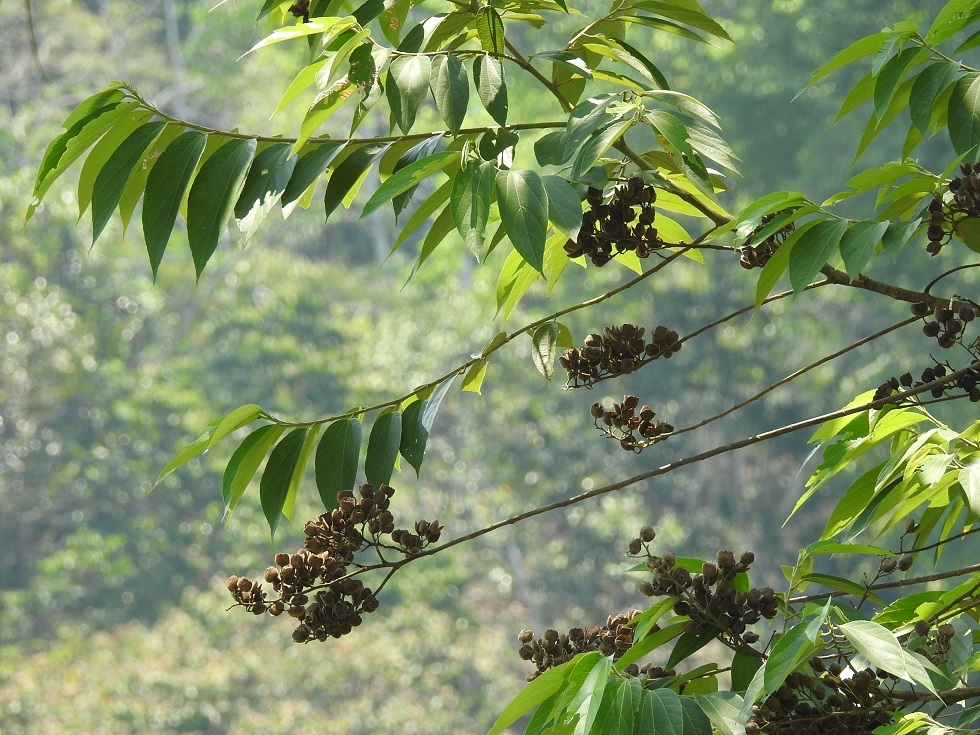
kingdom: Plantae
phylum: Tracheophyta
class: Magnoliopsida
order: Malvales
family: Malvaceae
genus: Trichospermum
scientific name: Trichospermum mexicanum
